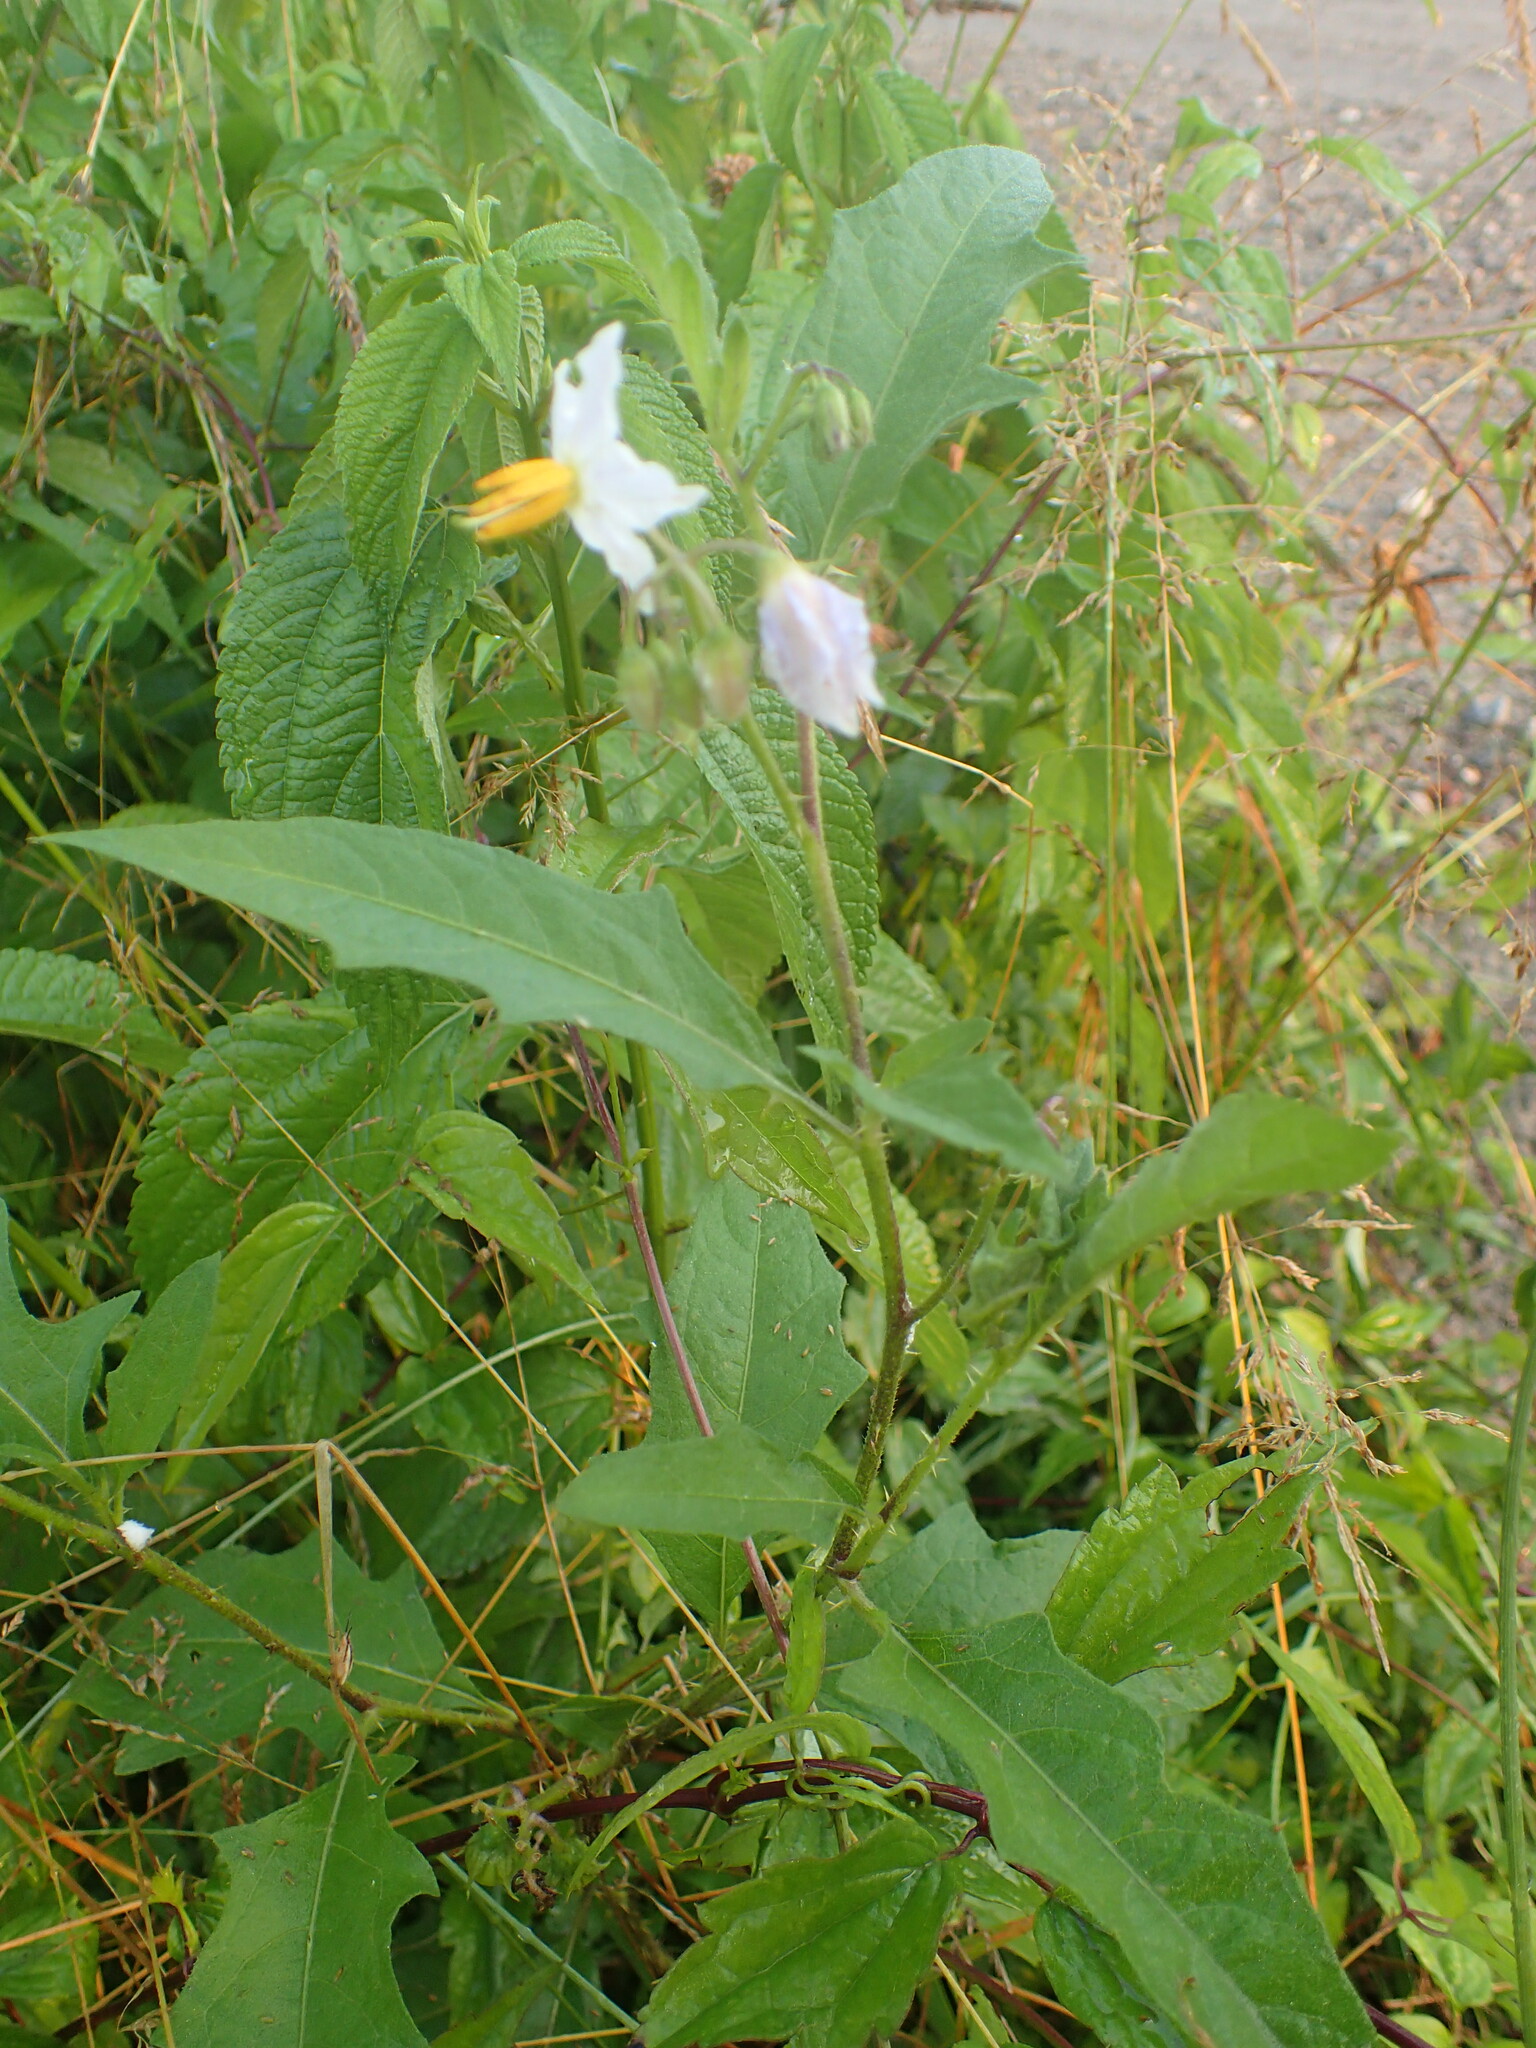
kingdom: Plantae
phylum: Tracheophyta
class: Magnoliopsida
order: Solanales
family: Solanaceae
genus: Solanum
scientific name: Solanum carolinense
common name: Horse-nettle
